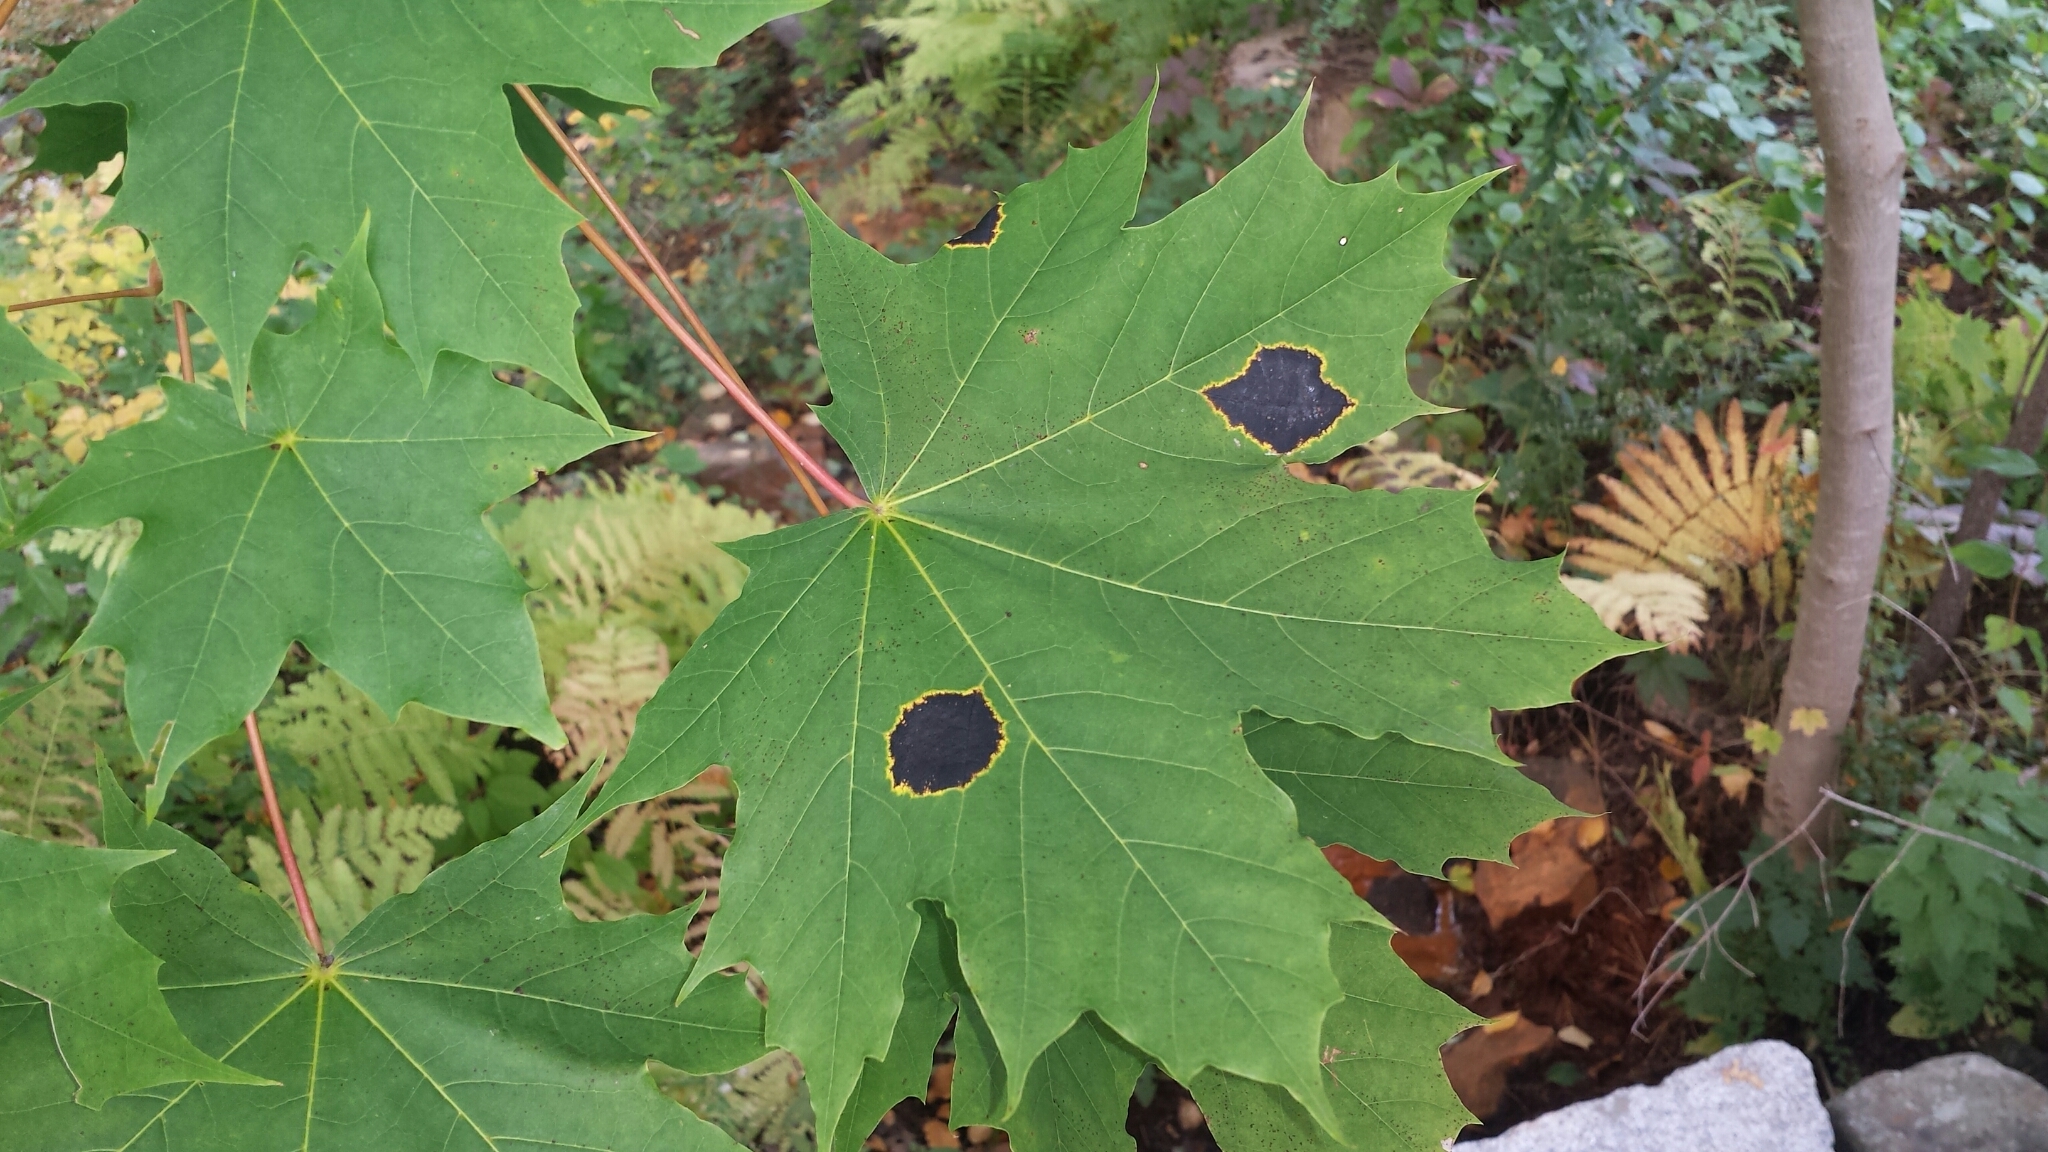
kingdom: Fungi
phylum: Ascomycota
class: Leotiomycetes
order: Rhytismatales
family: Rhytismataceae
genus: Rhytisma
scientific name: Rhytisma acerinum
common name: European tar spot
